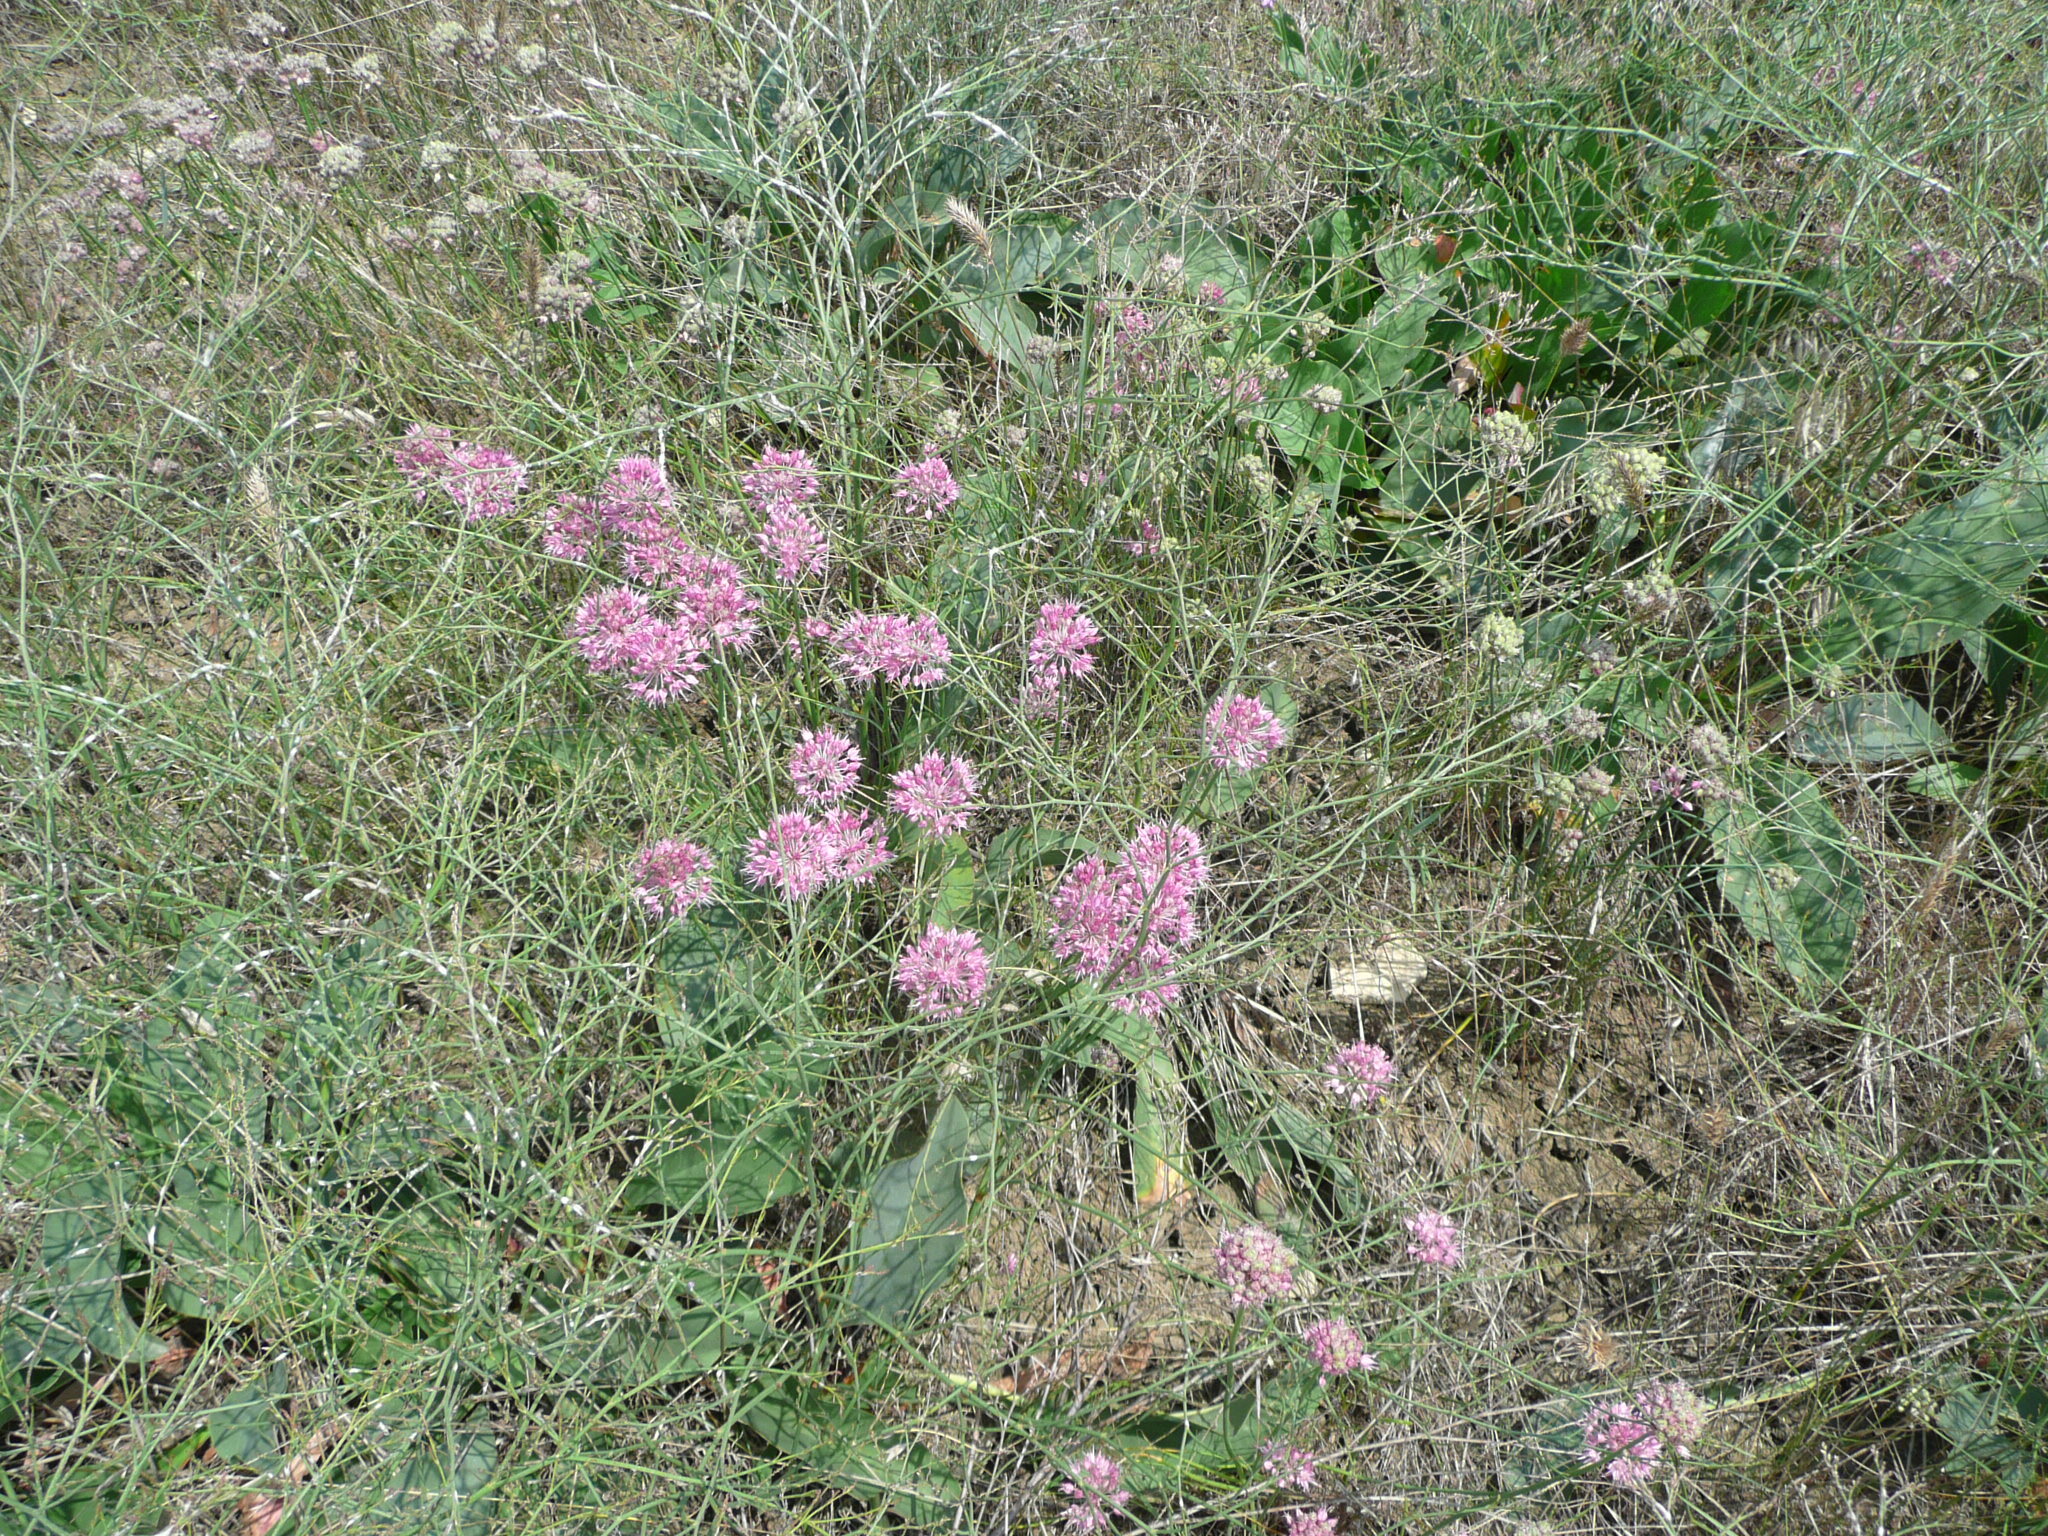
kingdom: Plantae
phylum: Tracheophyta
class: Liliopsida
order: Asparagales
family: Amaryllidaceae
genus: Allium
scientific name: Allium saxatile
